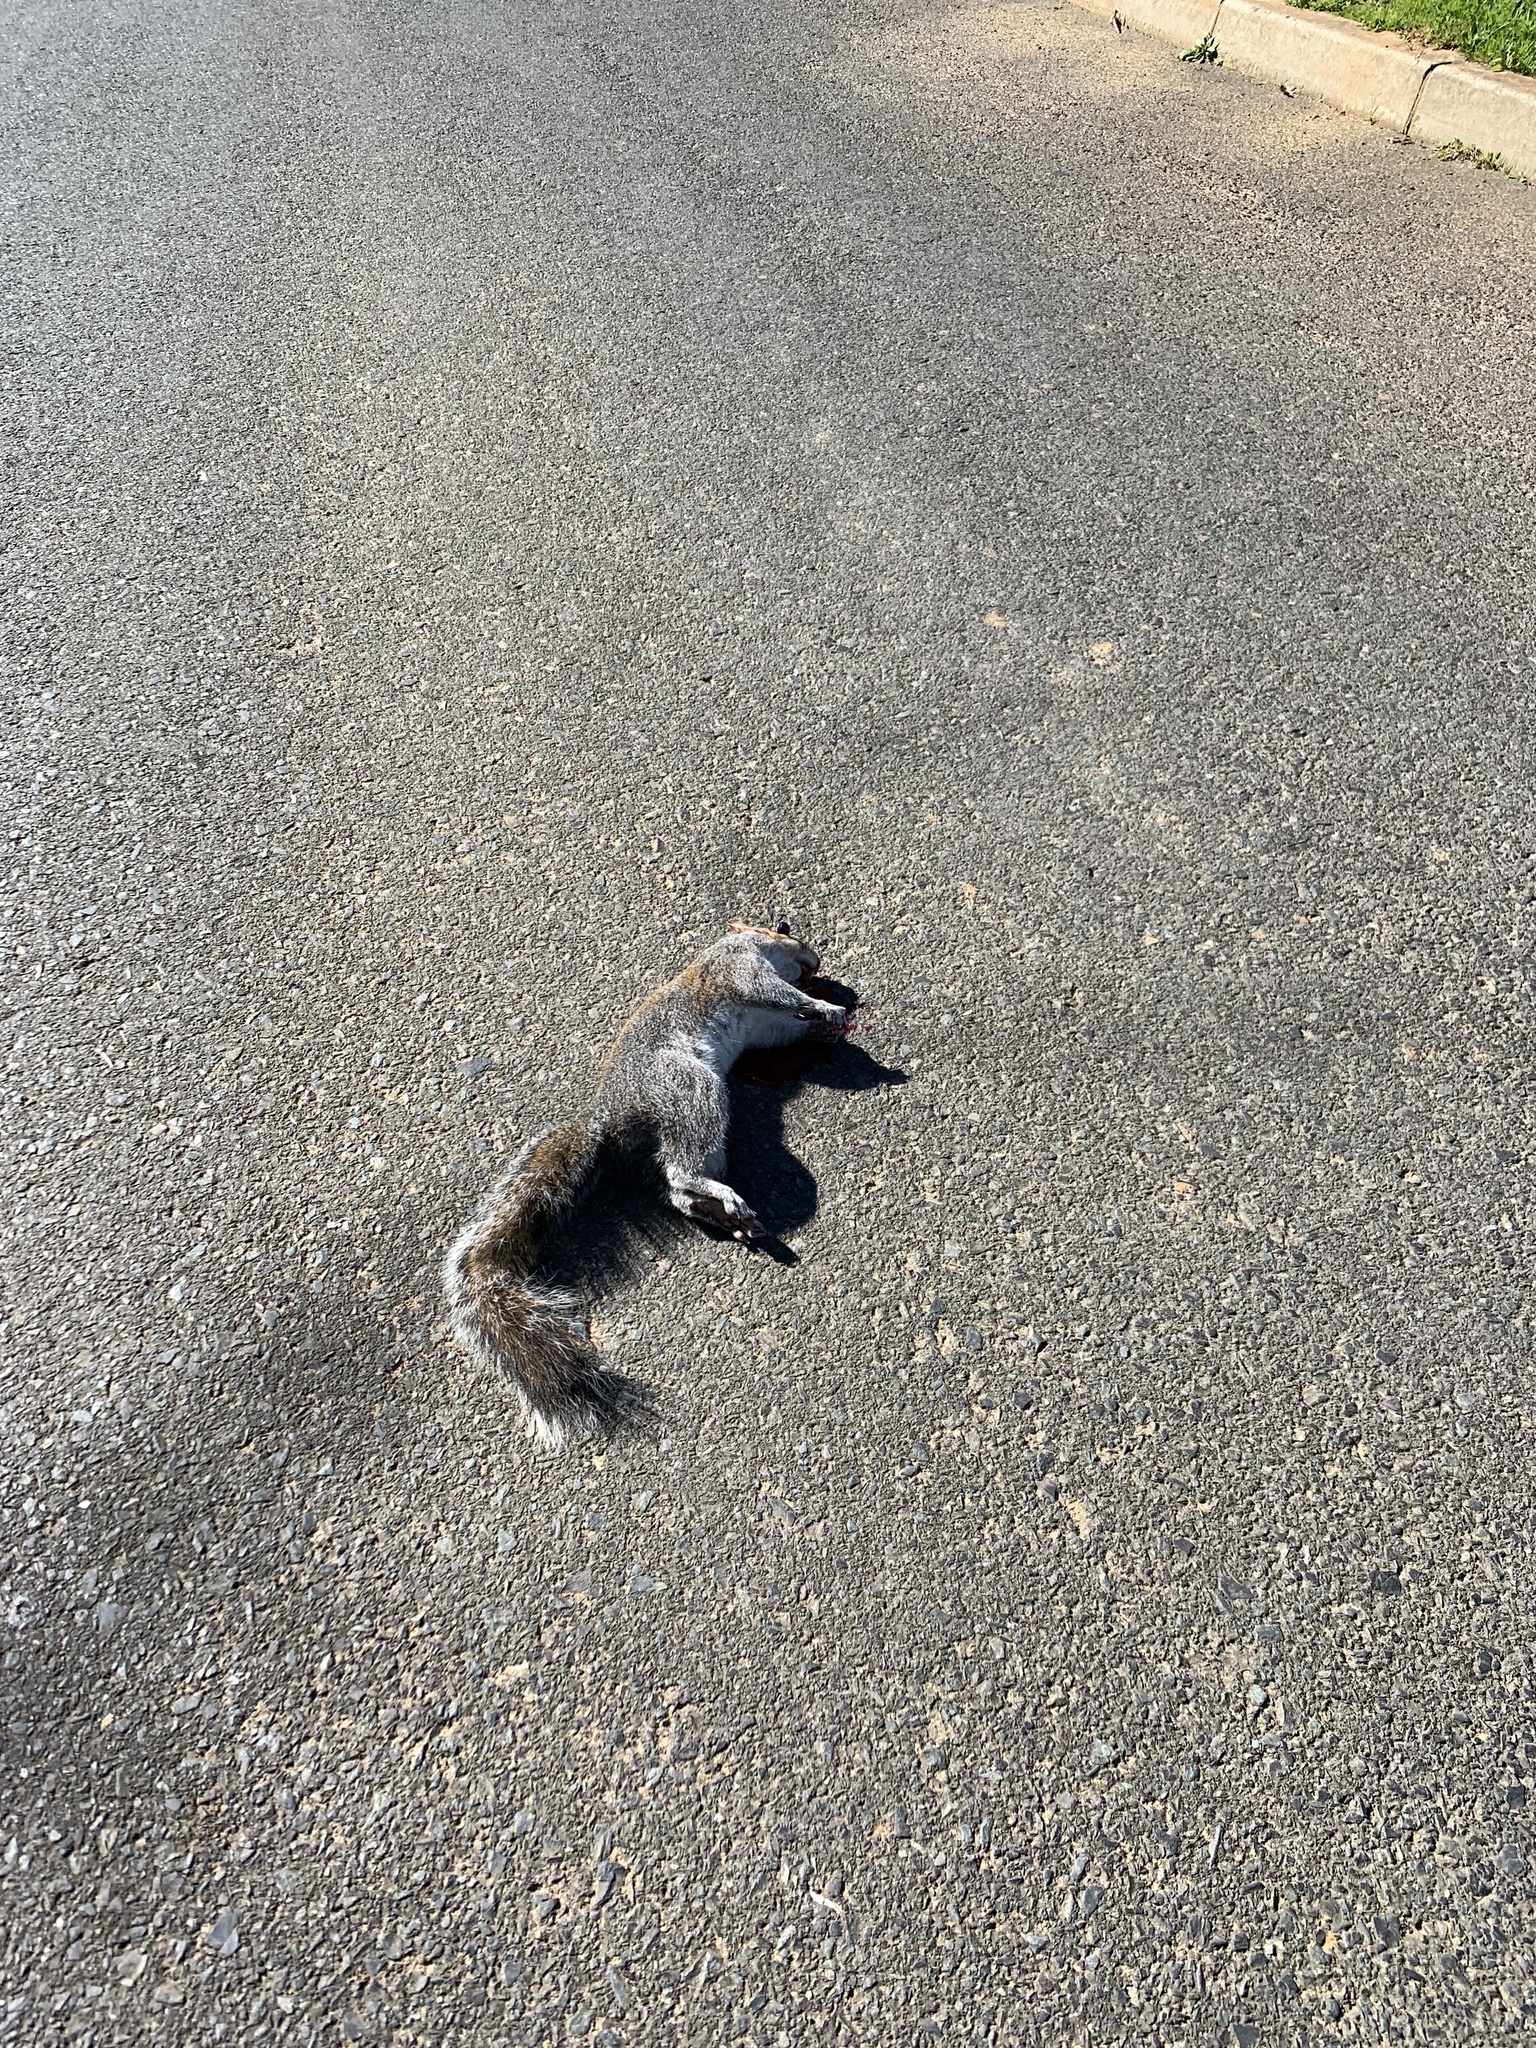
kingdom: Animalia
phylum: Chordata
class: Mammalia
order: Rodentia
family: Sciuridae
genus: Sciurus
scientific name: Sciurus carolinensis
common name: Eastern gray squirrel
